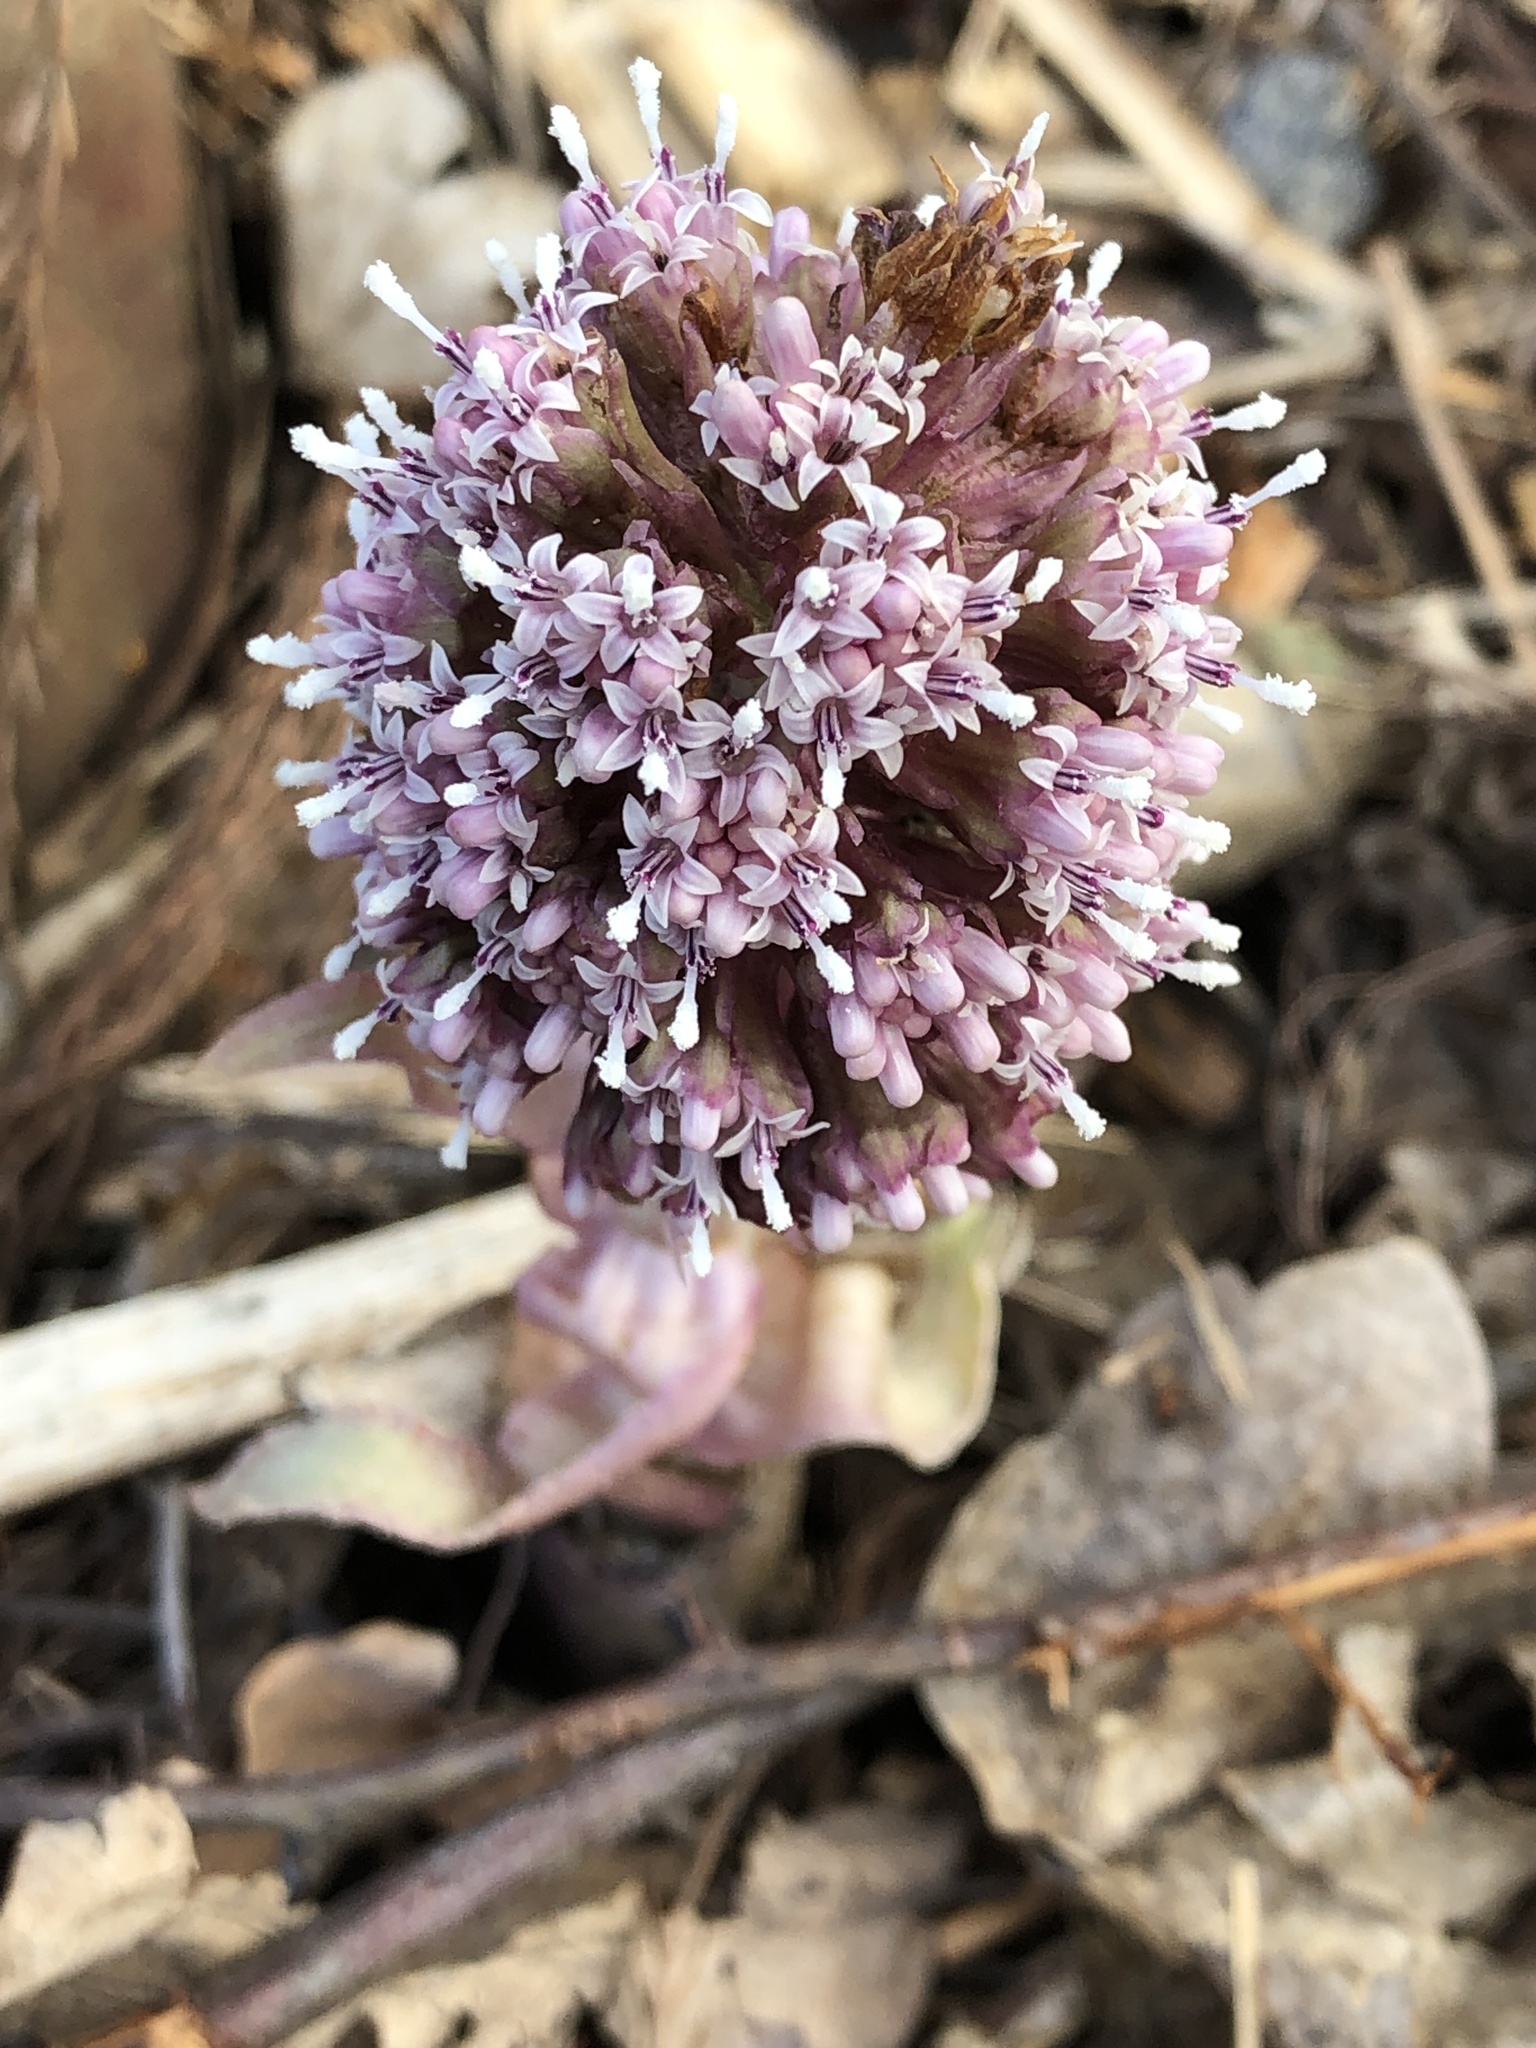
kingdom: Plantae
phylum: Tracheophyta
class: Magnoliopsida
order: Asterales
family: Asteraceae
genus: Petasites
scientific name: Petasites hybridus
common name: Butterbur
